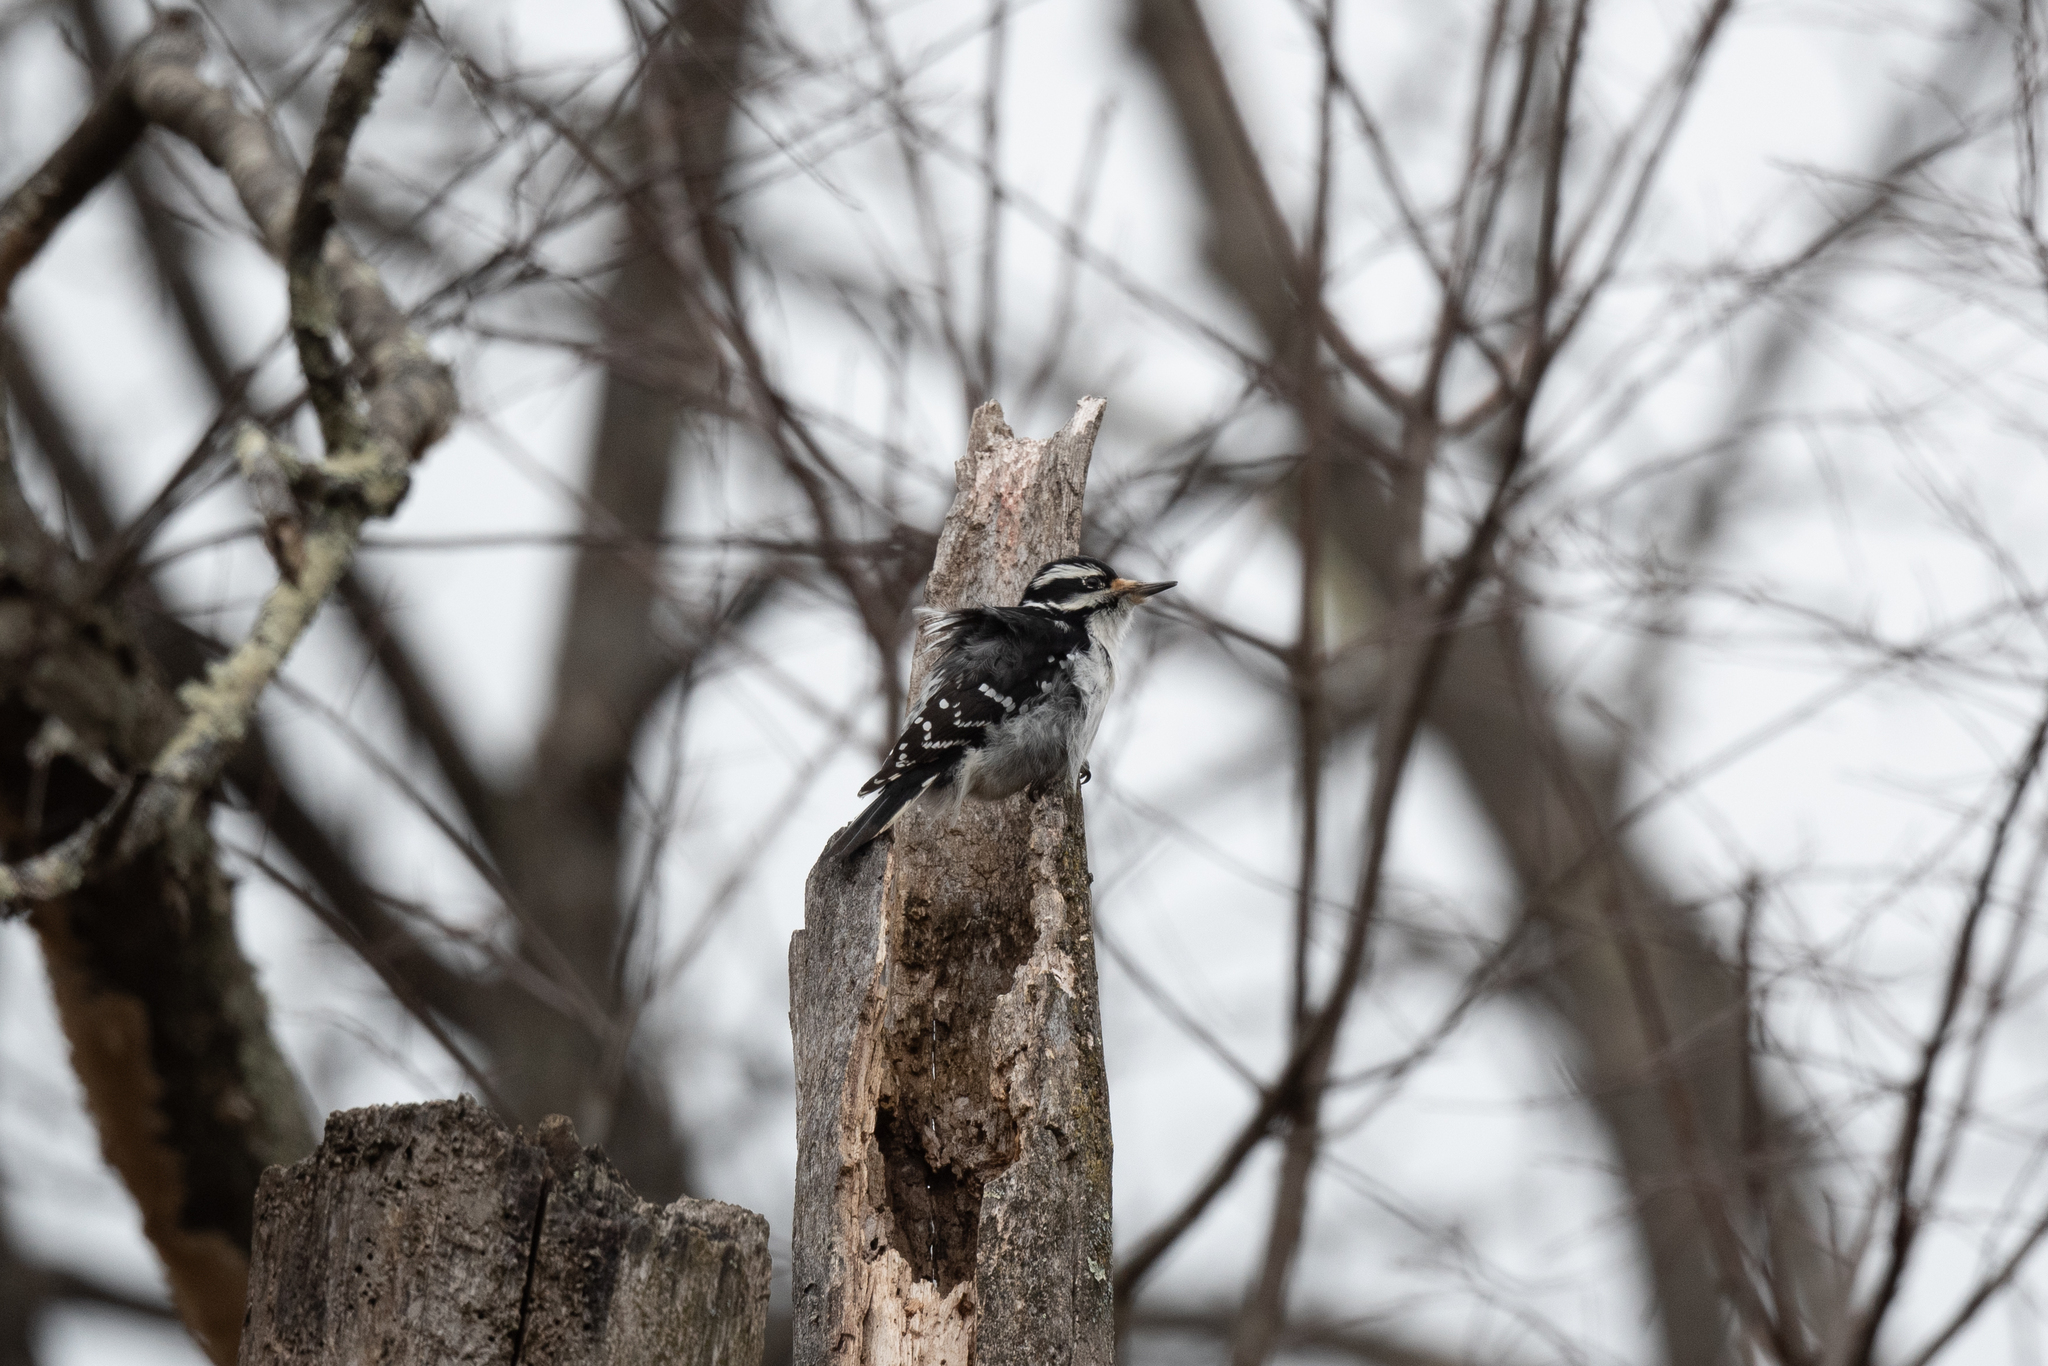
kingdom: Animalia
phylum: Chordata
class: Aves
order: Piciformes
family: Picidae
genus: Leuconotopicus
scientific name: Leuconotopicus villosus
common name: Hairy woodpecker
